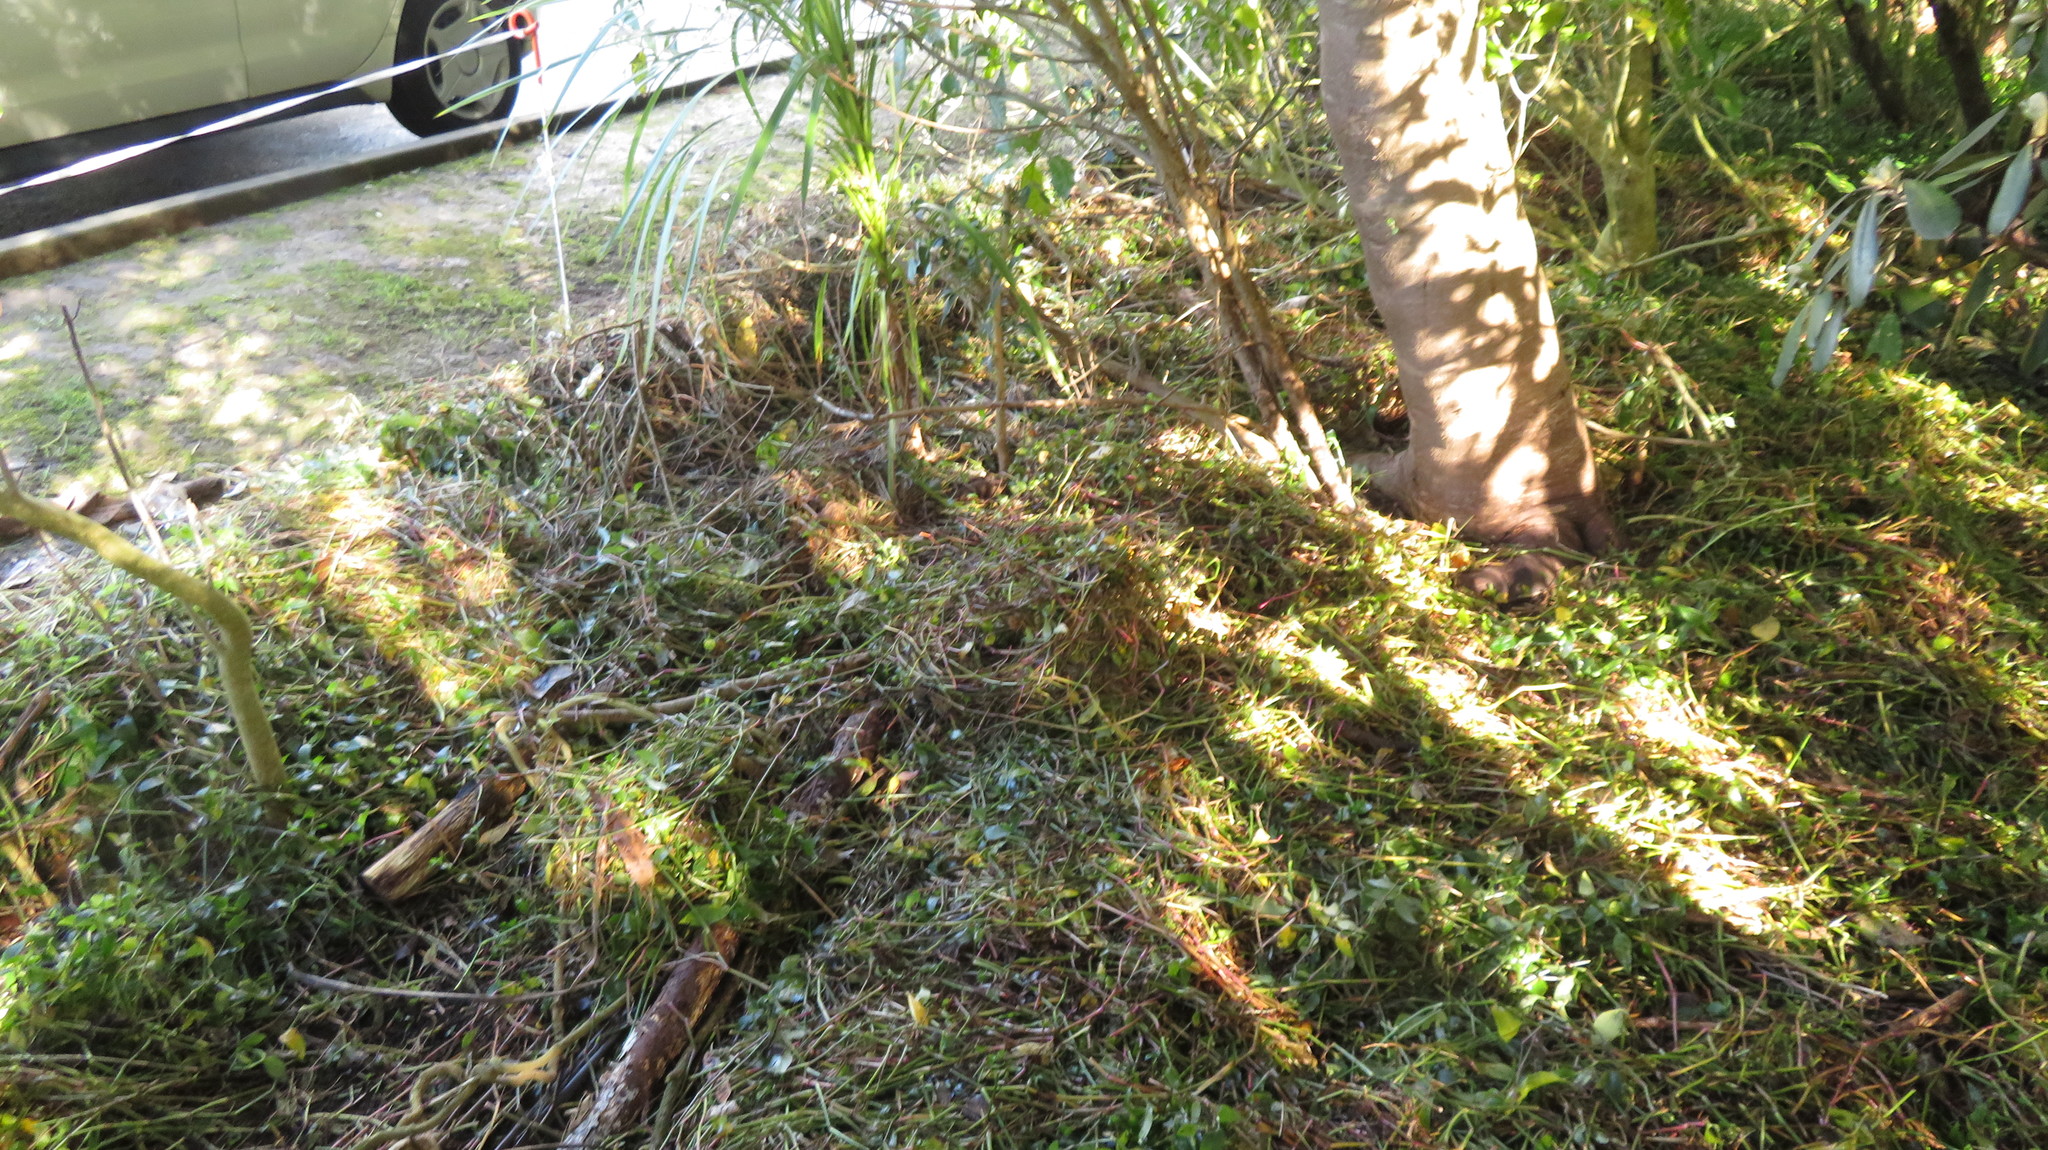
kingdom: Plantae
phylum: Tracheophyta
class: Liliopsida
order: Commelinales
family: Commelinaceae
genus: Tradescantia
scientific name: Tradescantia fluminensis
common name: Wandering-jew
